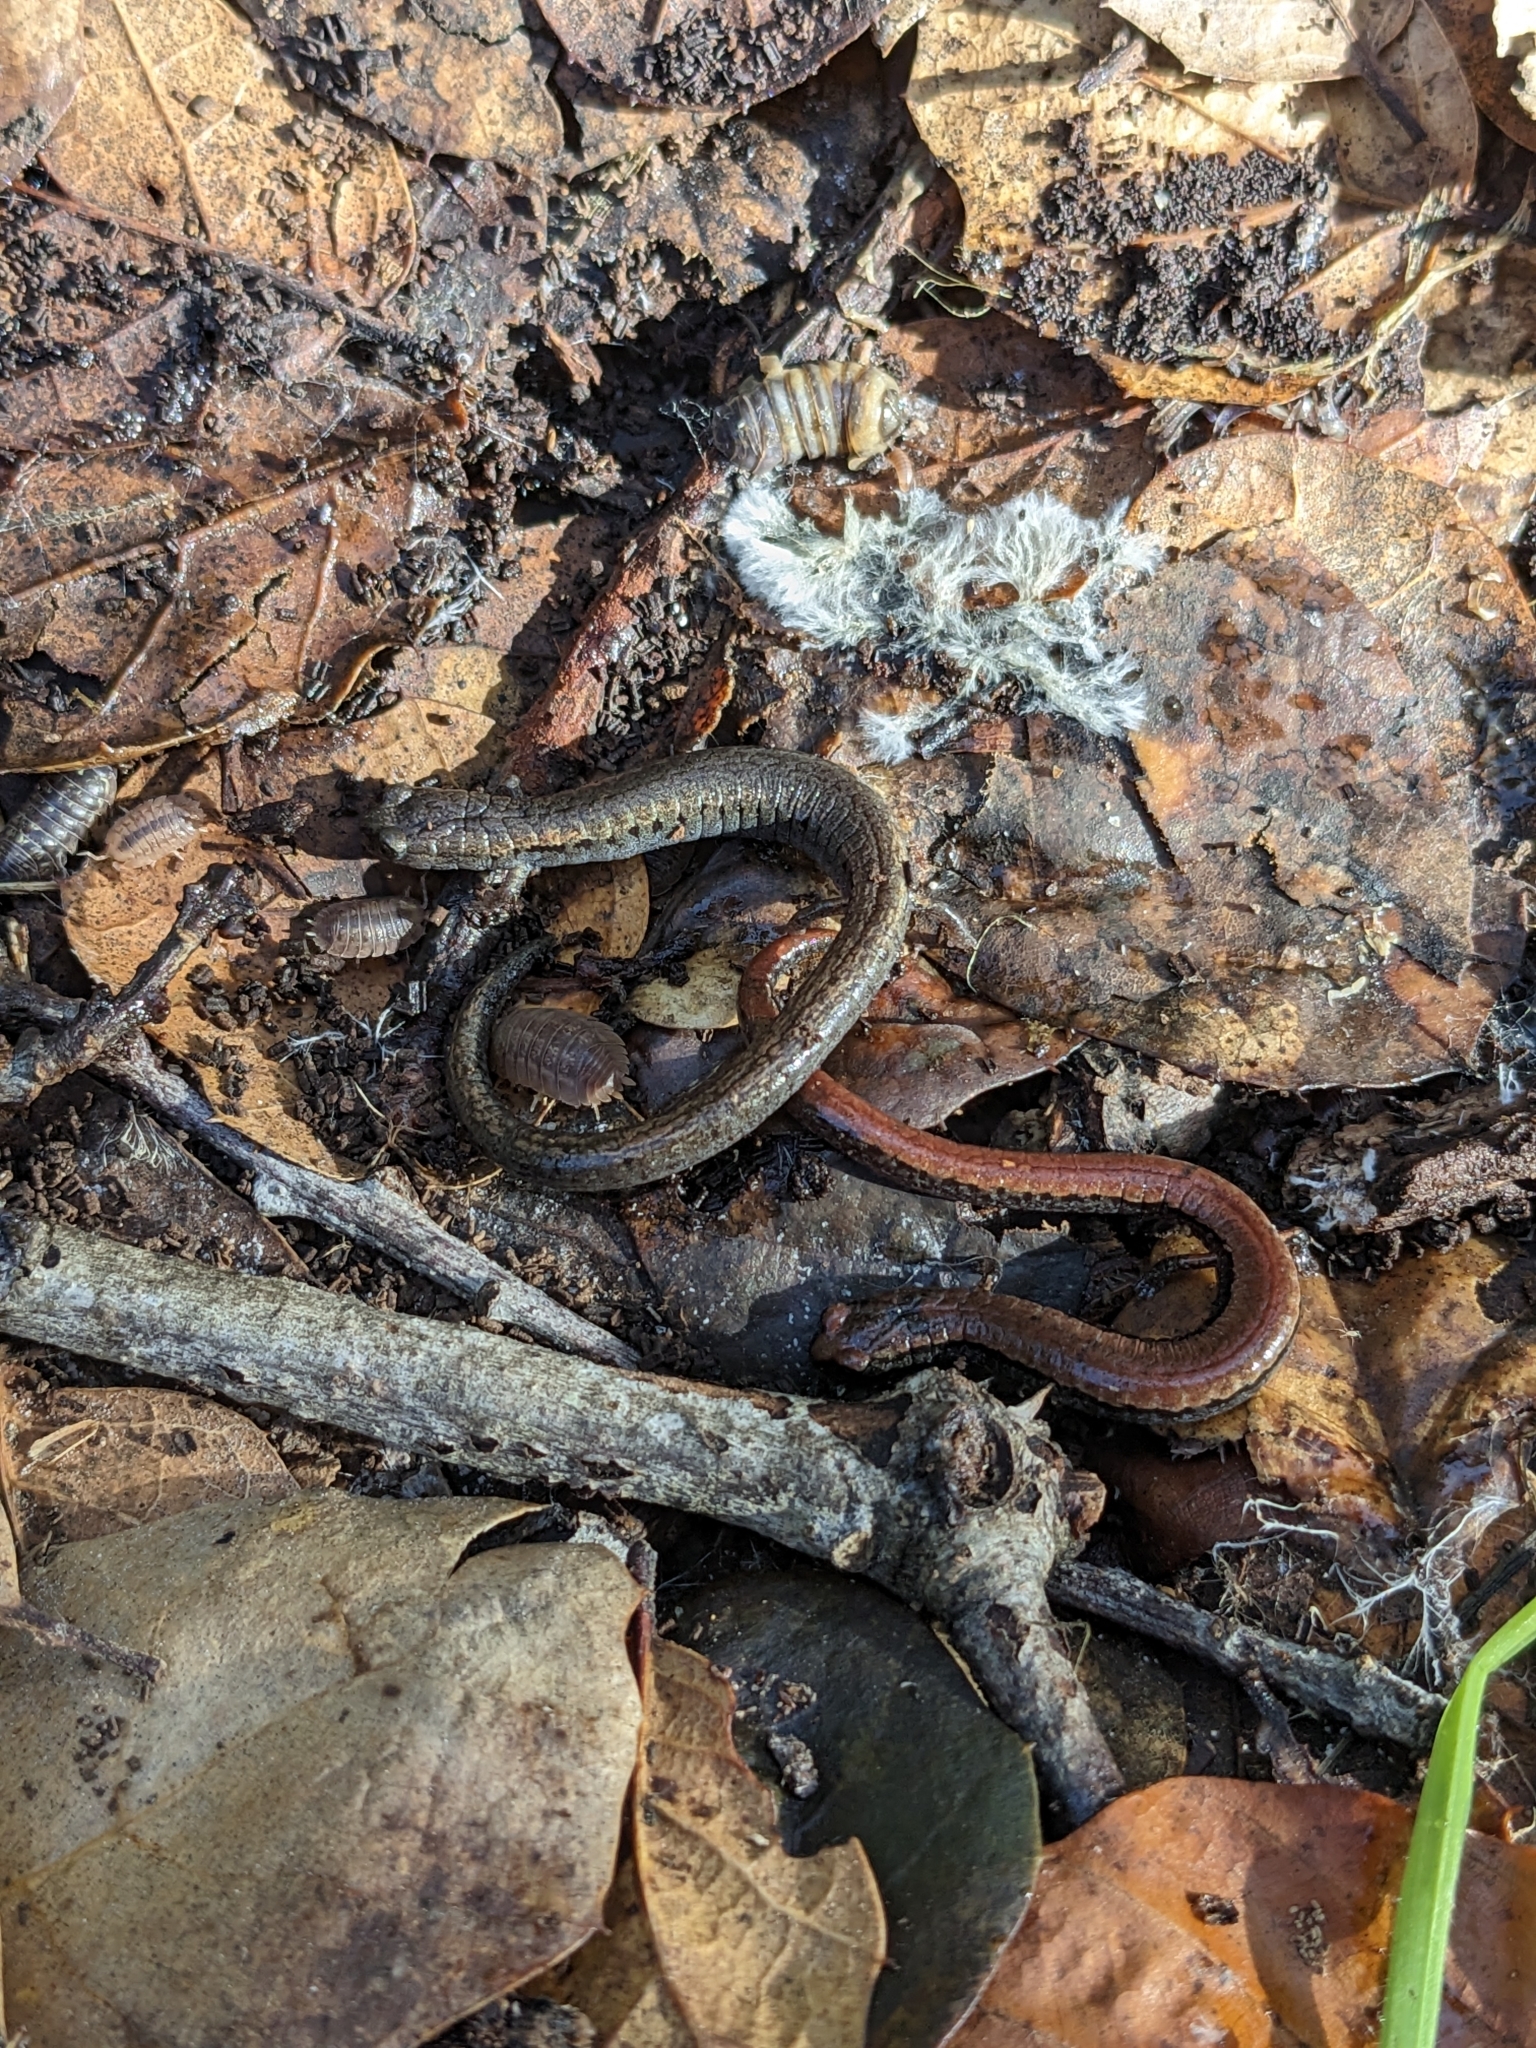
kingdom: Animalia
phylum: Chordata
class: Amphibia
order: Caudata
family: Plethodontidae
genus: Batrachoseps
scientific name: Batrachoseps attenuatus
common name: California slender salamander
